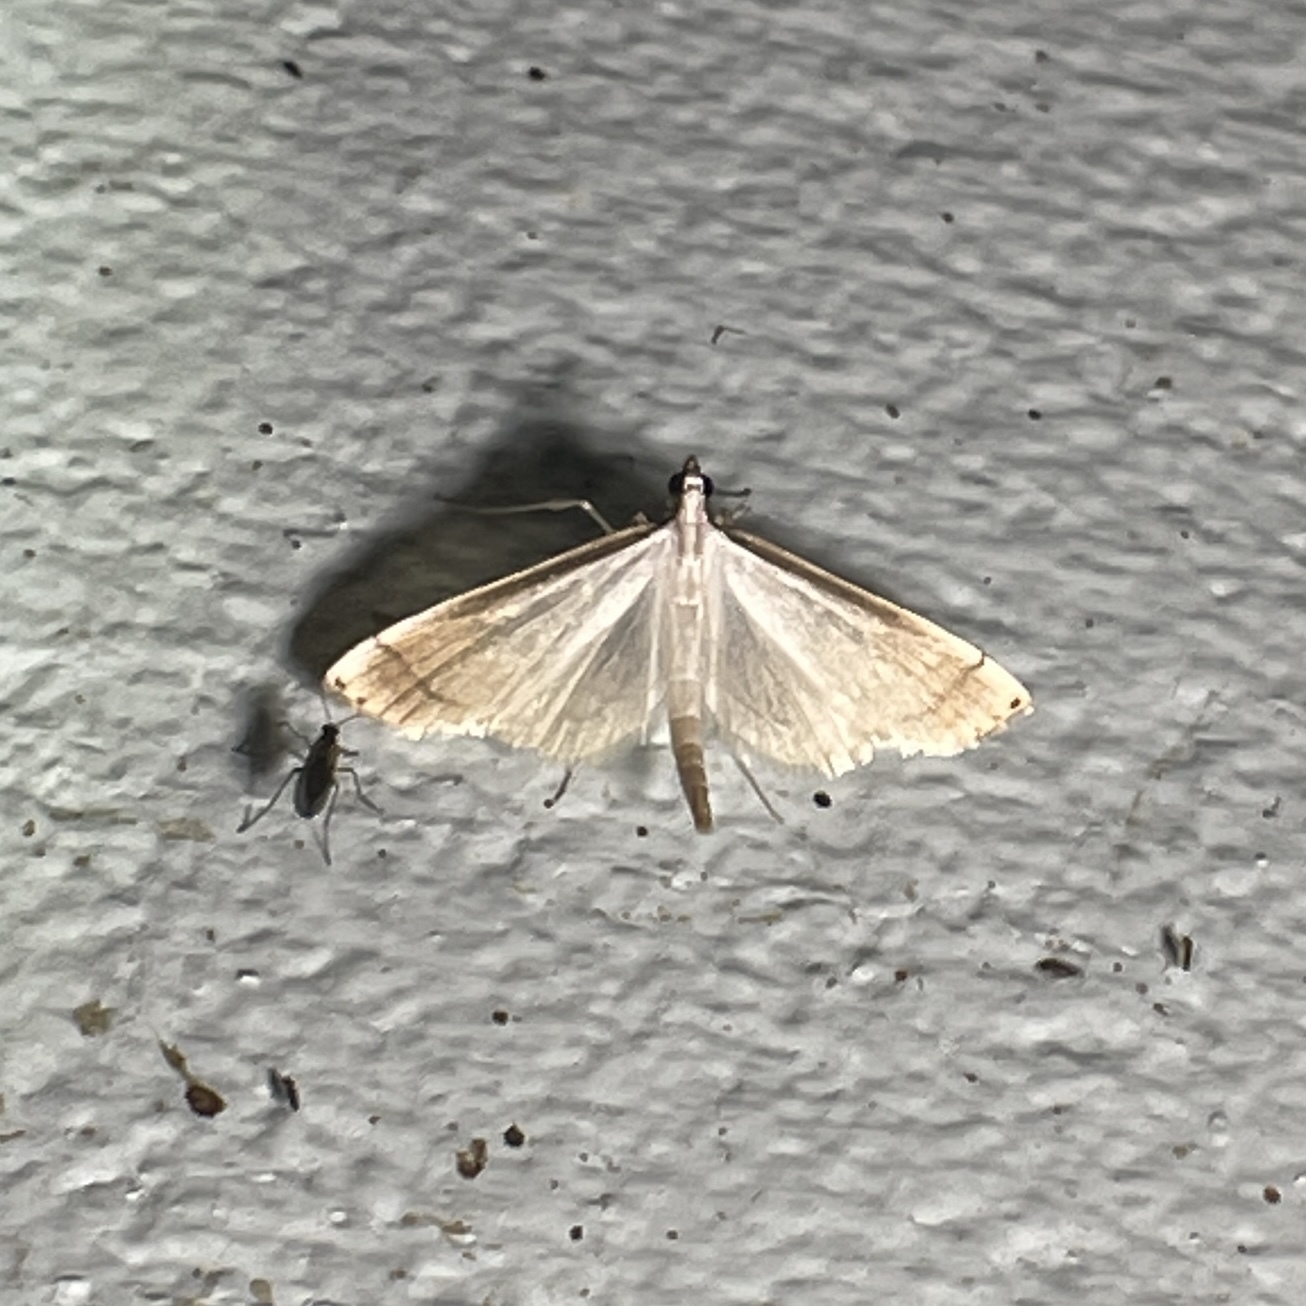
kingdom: Animalia
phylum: Arthropoda
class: Insecta
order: Lepidoptera
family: Crambidae
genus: Stenia
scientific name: Stenia saurialis
